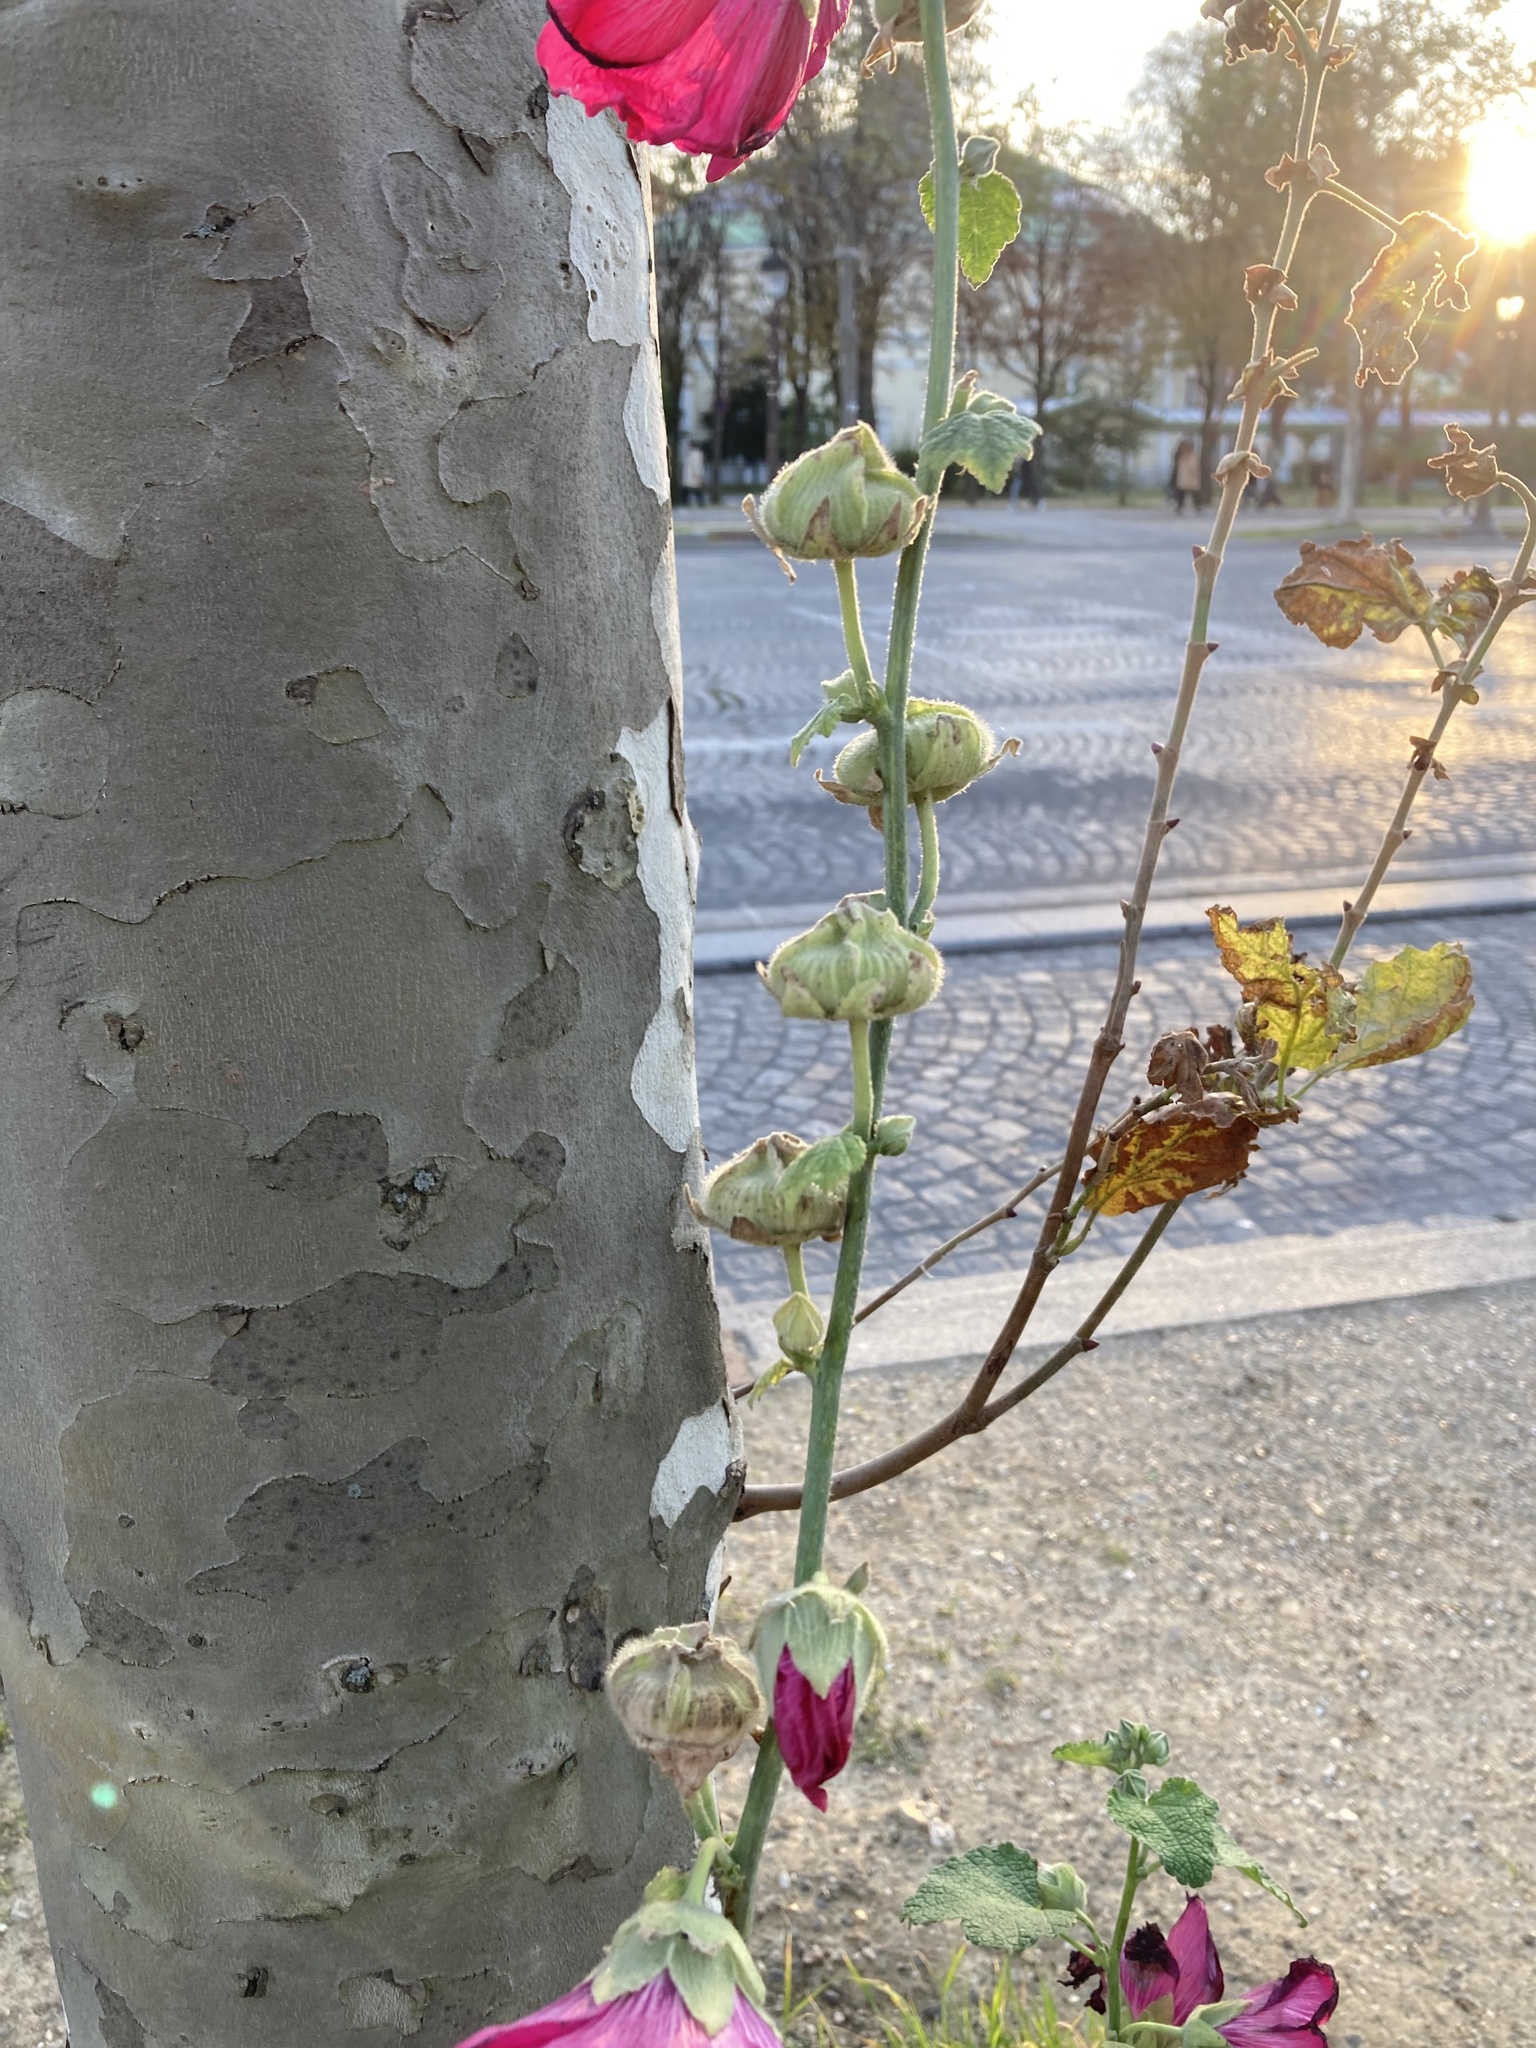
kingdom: Plantae
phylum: Tracheophyta
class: Magnoliopsida
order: Malvales
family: Malvaceae
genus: Alcea
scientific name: Alcea rosea
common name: Hollyhock
